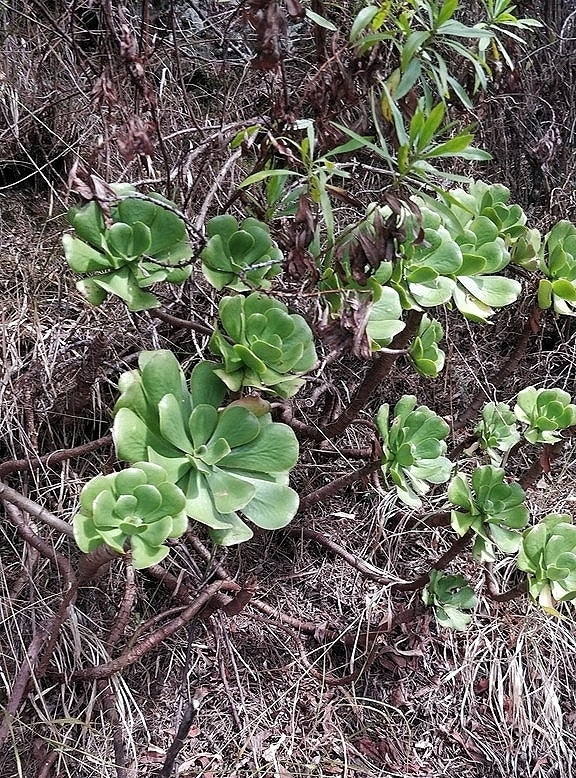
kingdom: Plantae
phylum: Tracheophyta
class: Magnoliopsida
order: Saxifragales
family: Crassulaceae
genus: Aeonium
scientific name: Aeonium glutinosum
